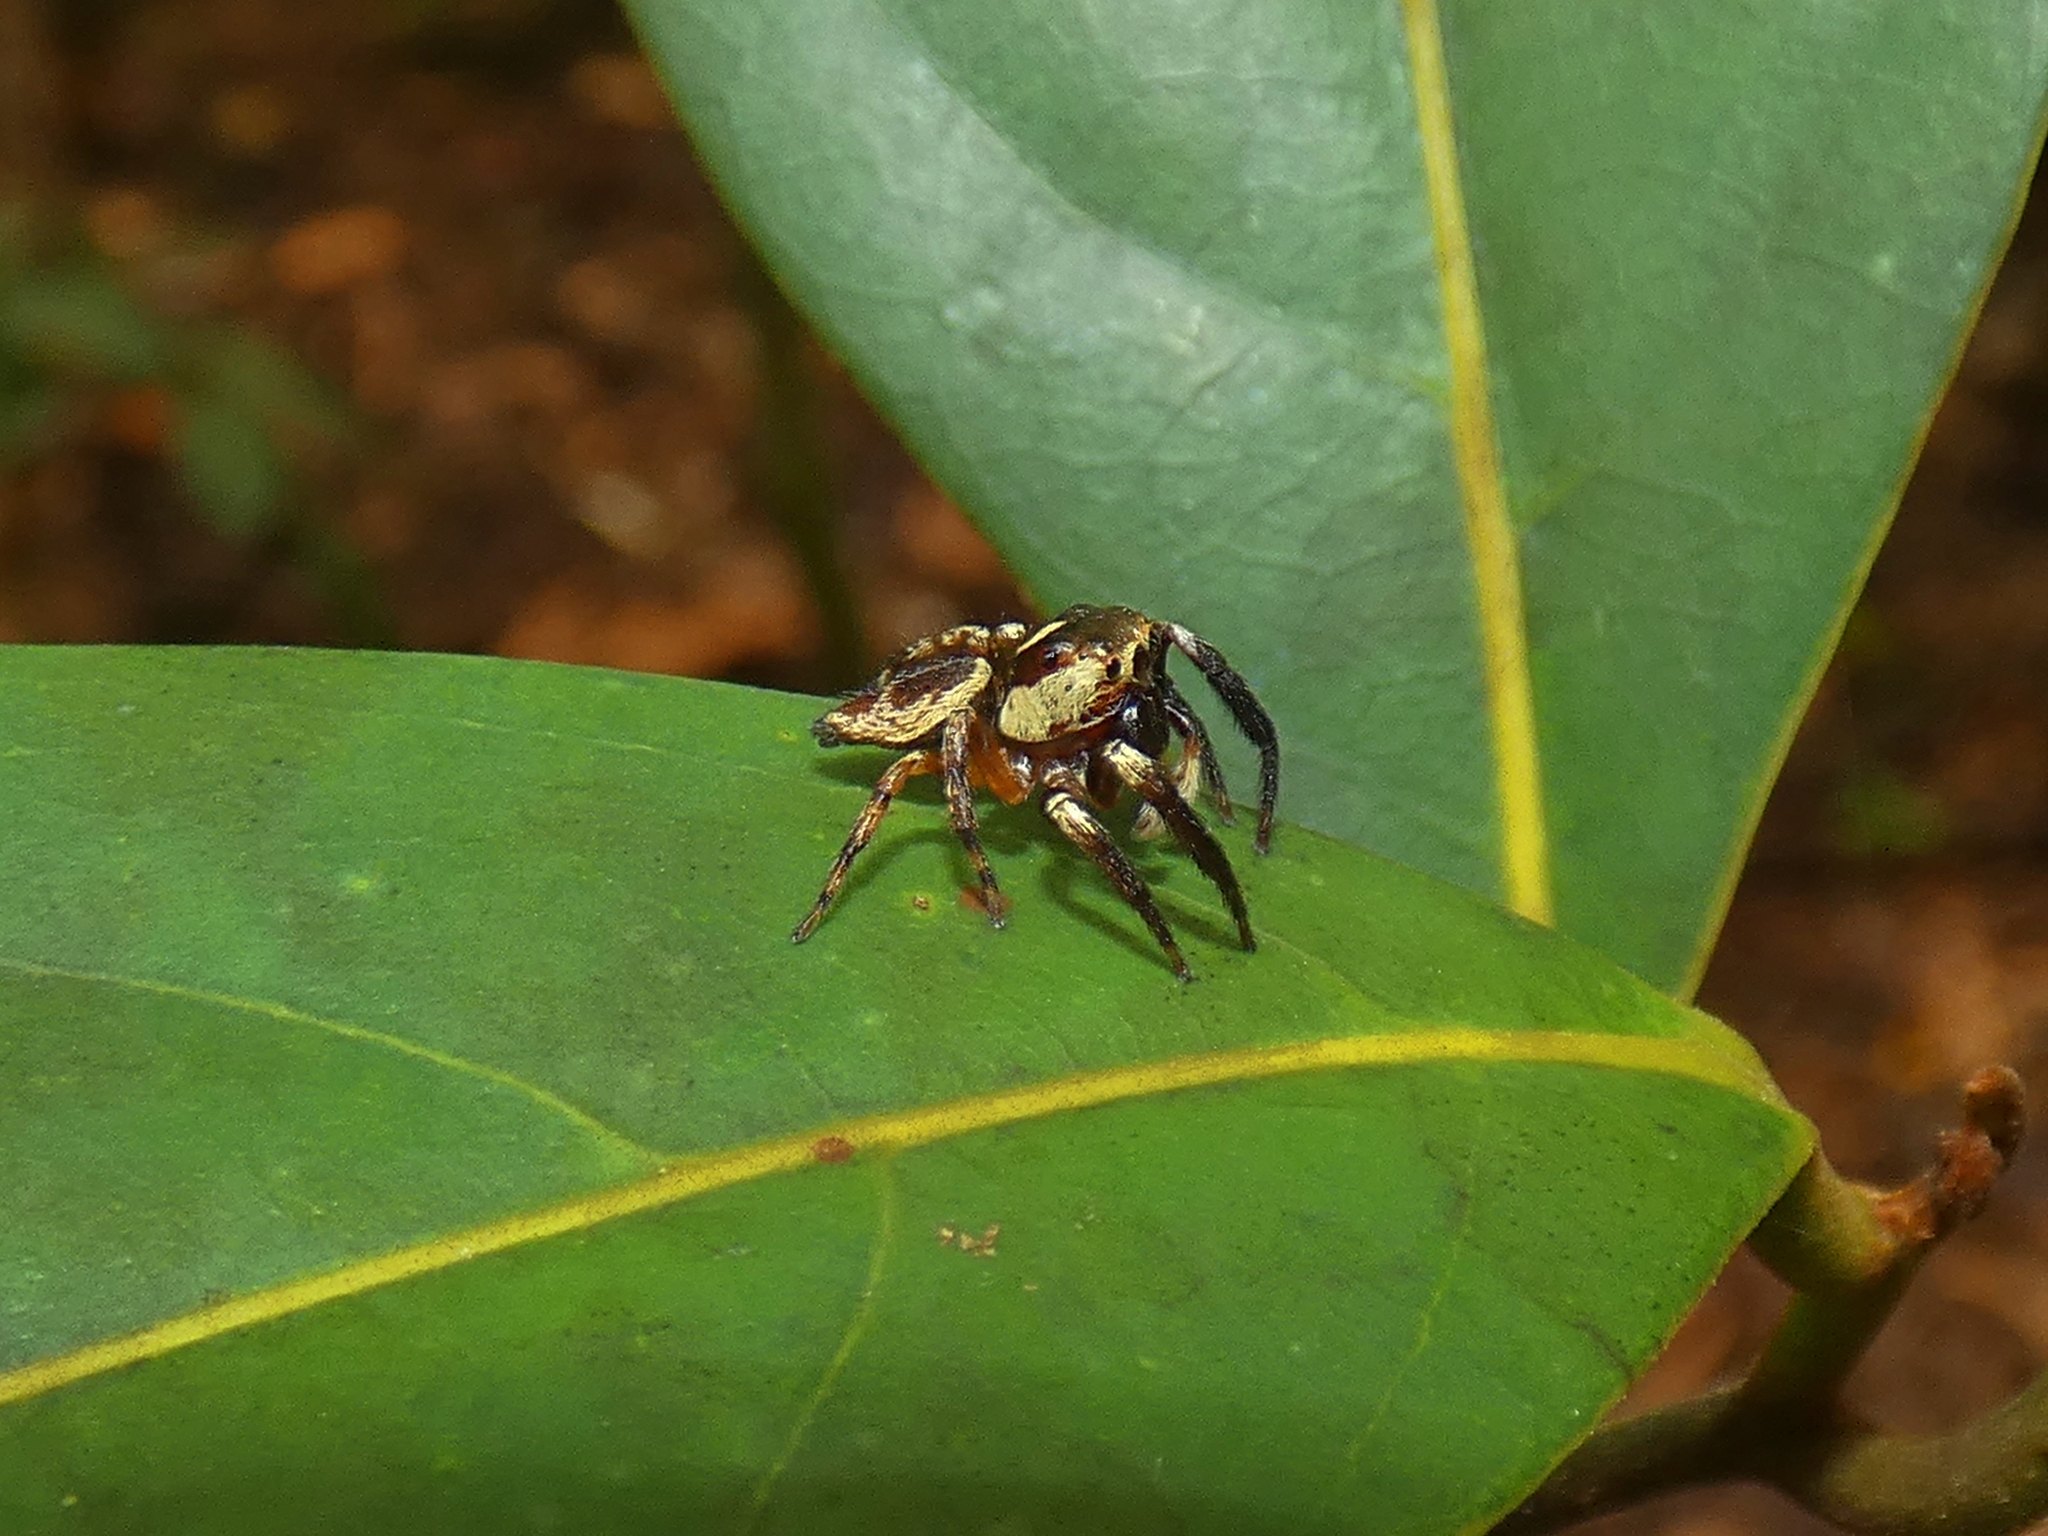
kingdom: Animalia
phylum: Arthropoda
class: Arachnida
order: Araneae
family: Salticidae
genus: Euryattus
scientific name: Euryattus wallacei
